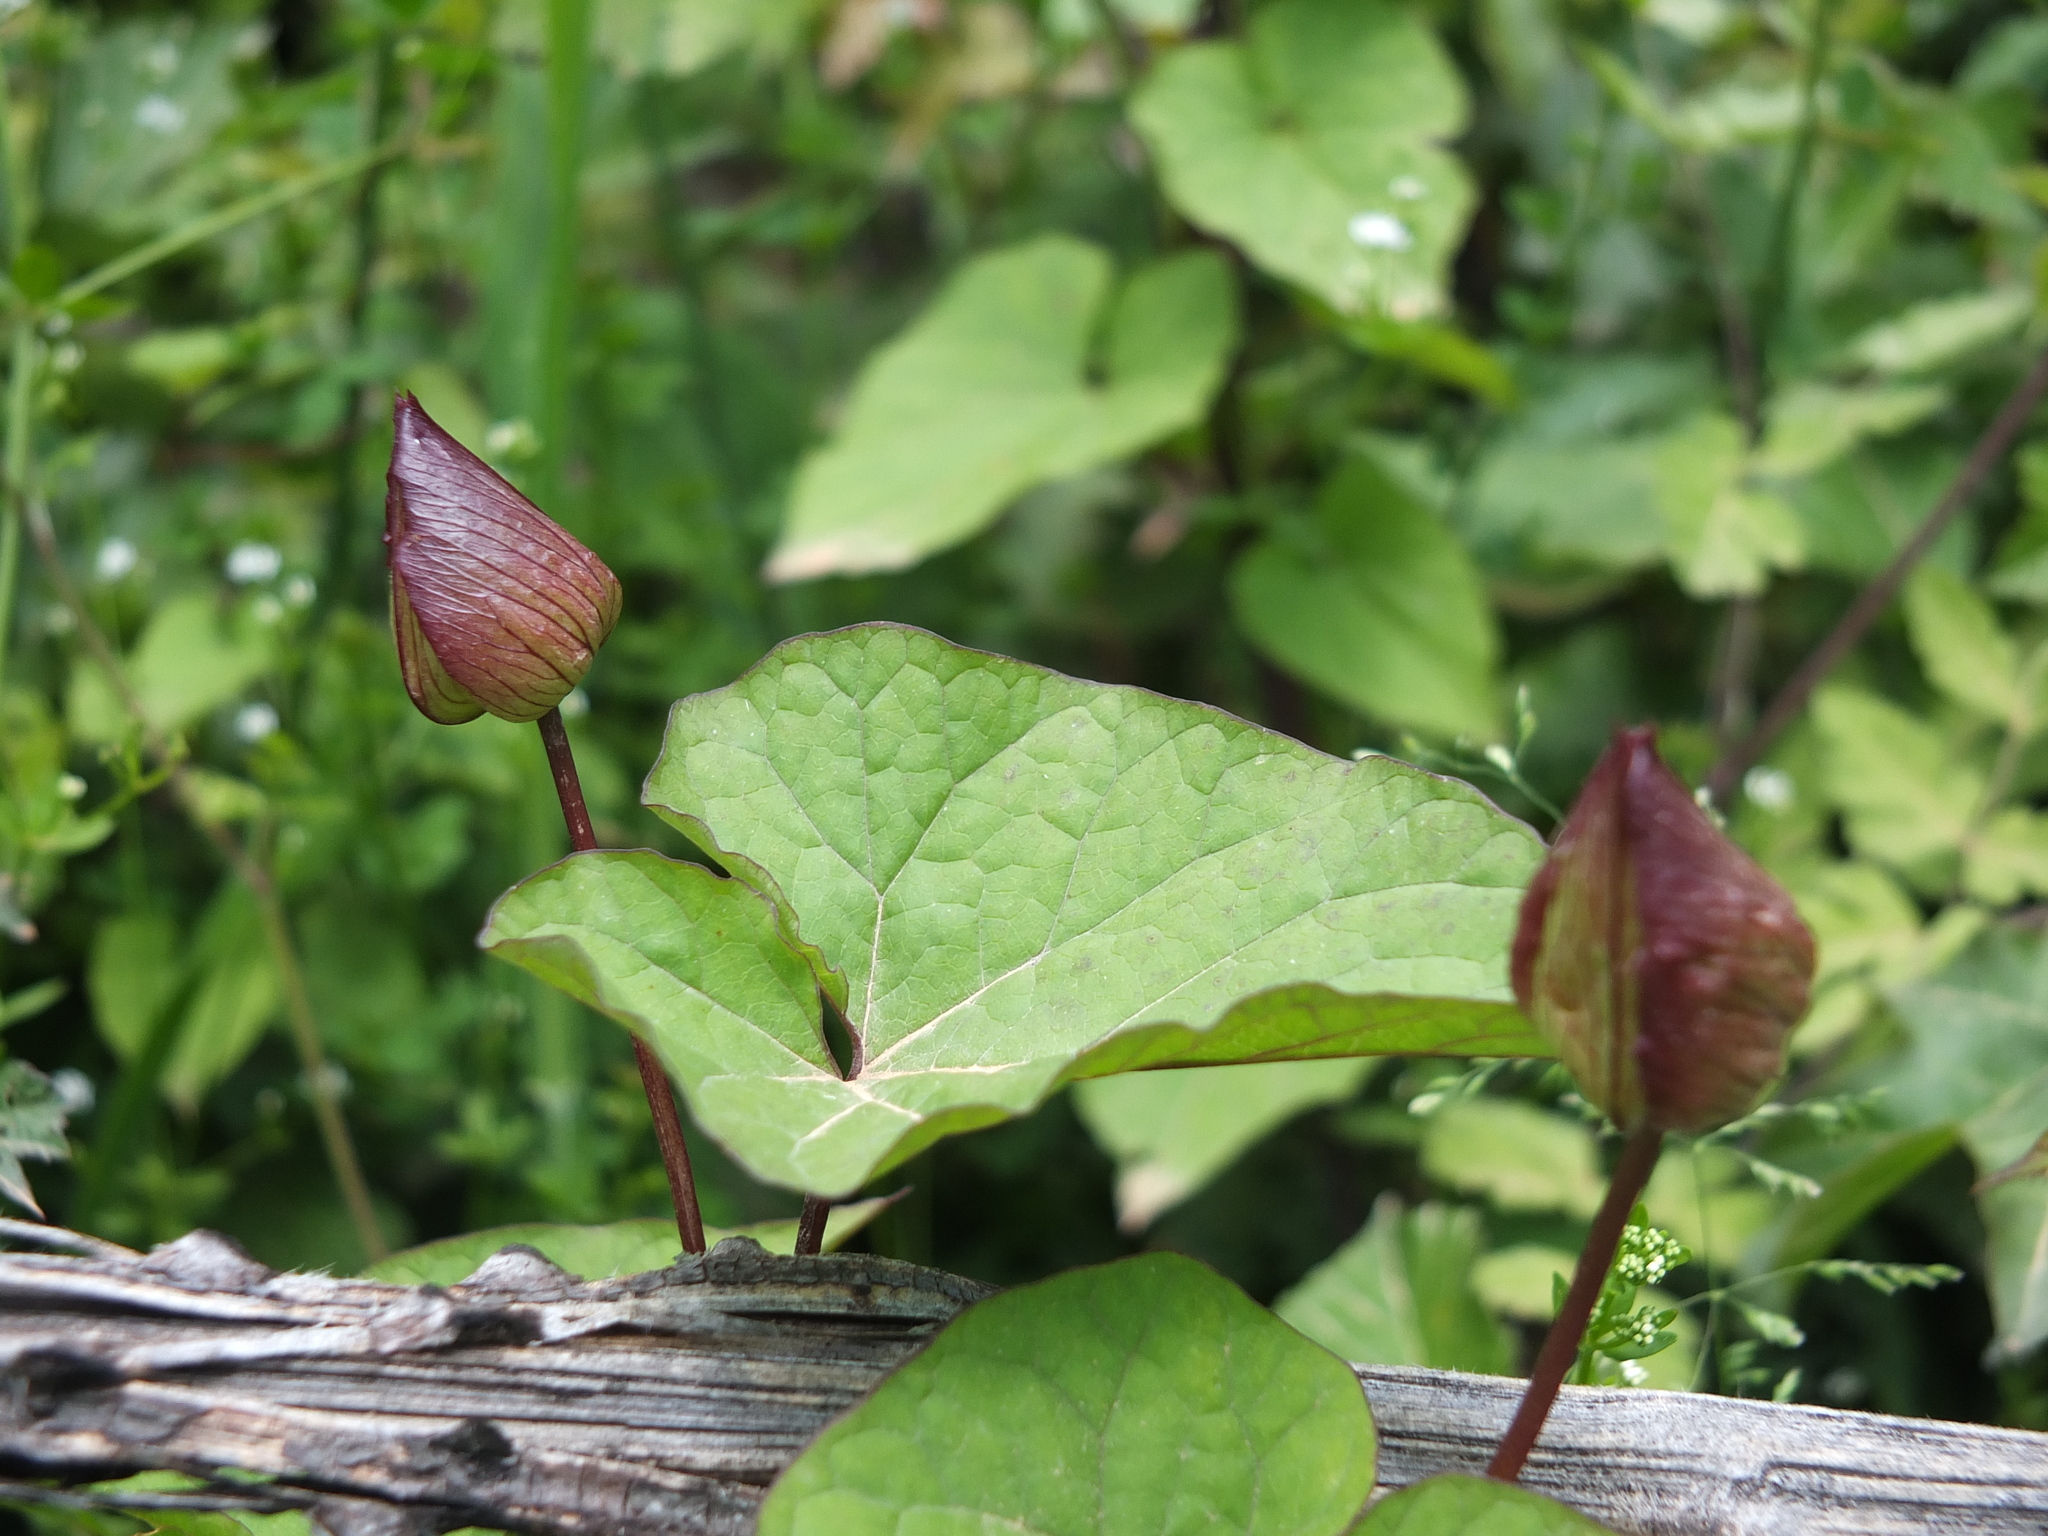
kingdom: Plantae
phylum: Tracheophyta
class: Magnoliopsida
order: Solanales
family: Convolvulaceae
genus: Calystegia
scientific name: Calystegia silvatica
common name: Large bindweed
